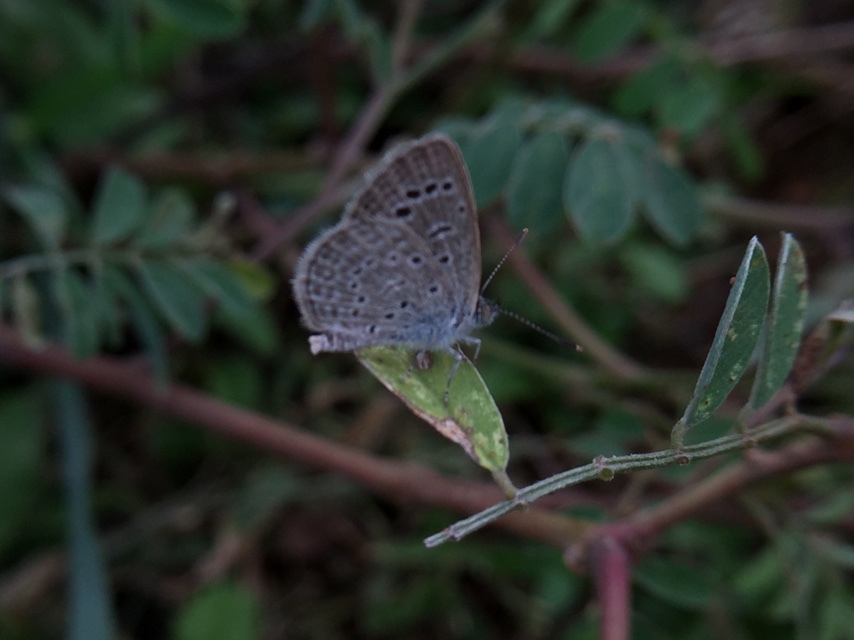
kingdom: Animalia
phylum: Arthropoda
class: Insecta
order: Lepidoptera
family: Lycaenidae
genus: Zizeeria
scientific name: Zizeeria karsandra
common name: Dark grass blue
